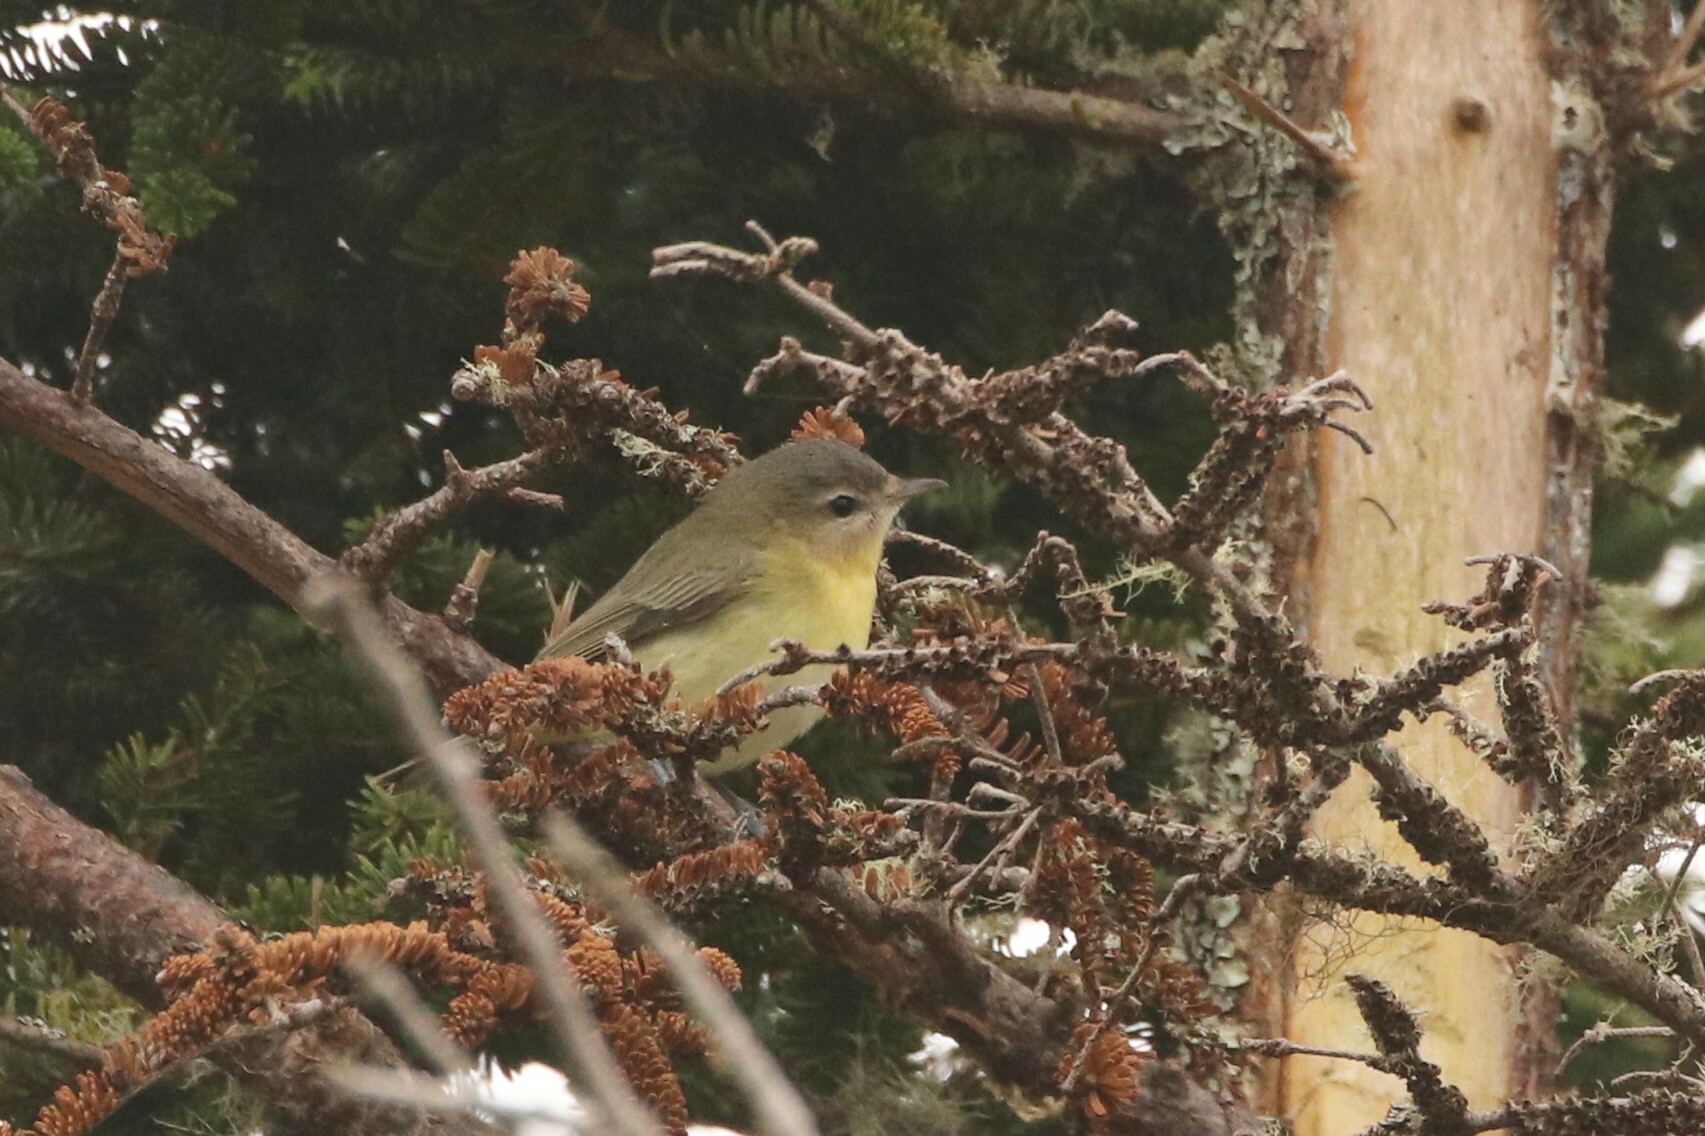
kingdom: Animalia
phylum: Chordata
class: Aves
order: Passeriformes
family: Vireonidae
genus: Vireo
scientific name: Vireo philadelphicus
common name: Philadelphia vireo
